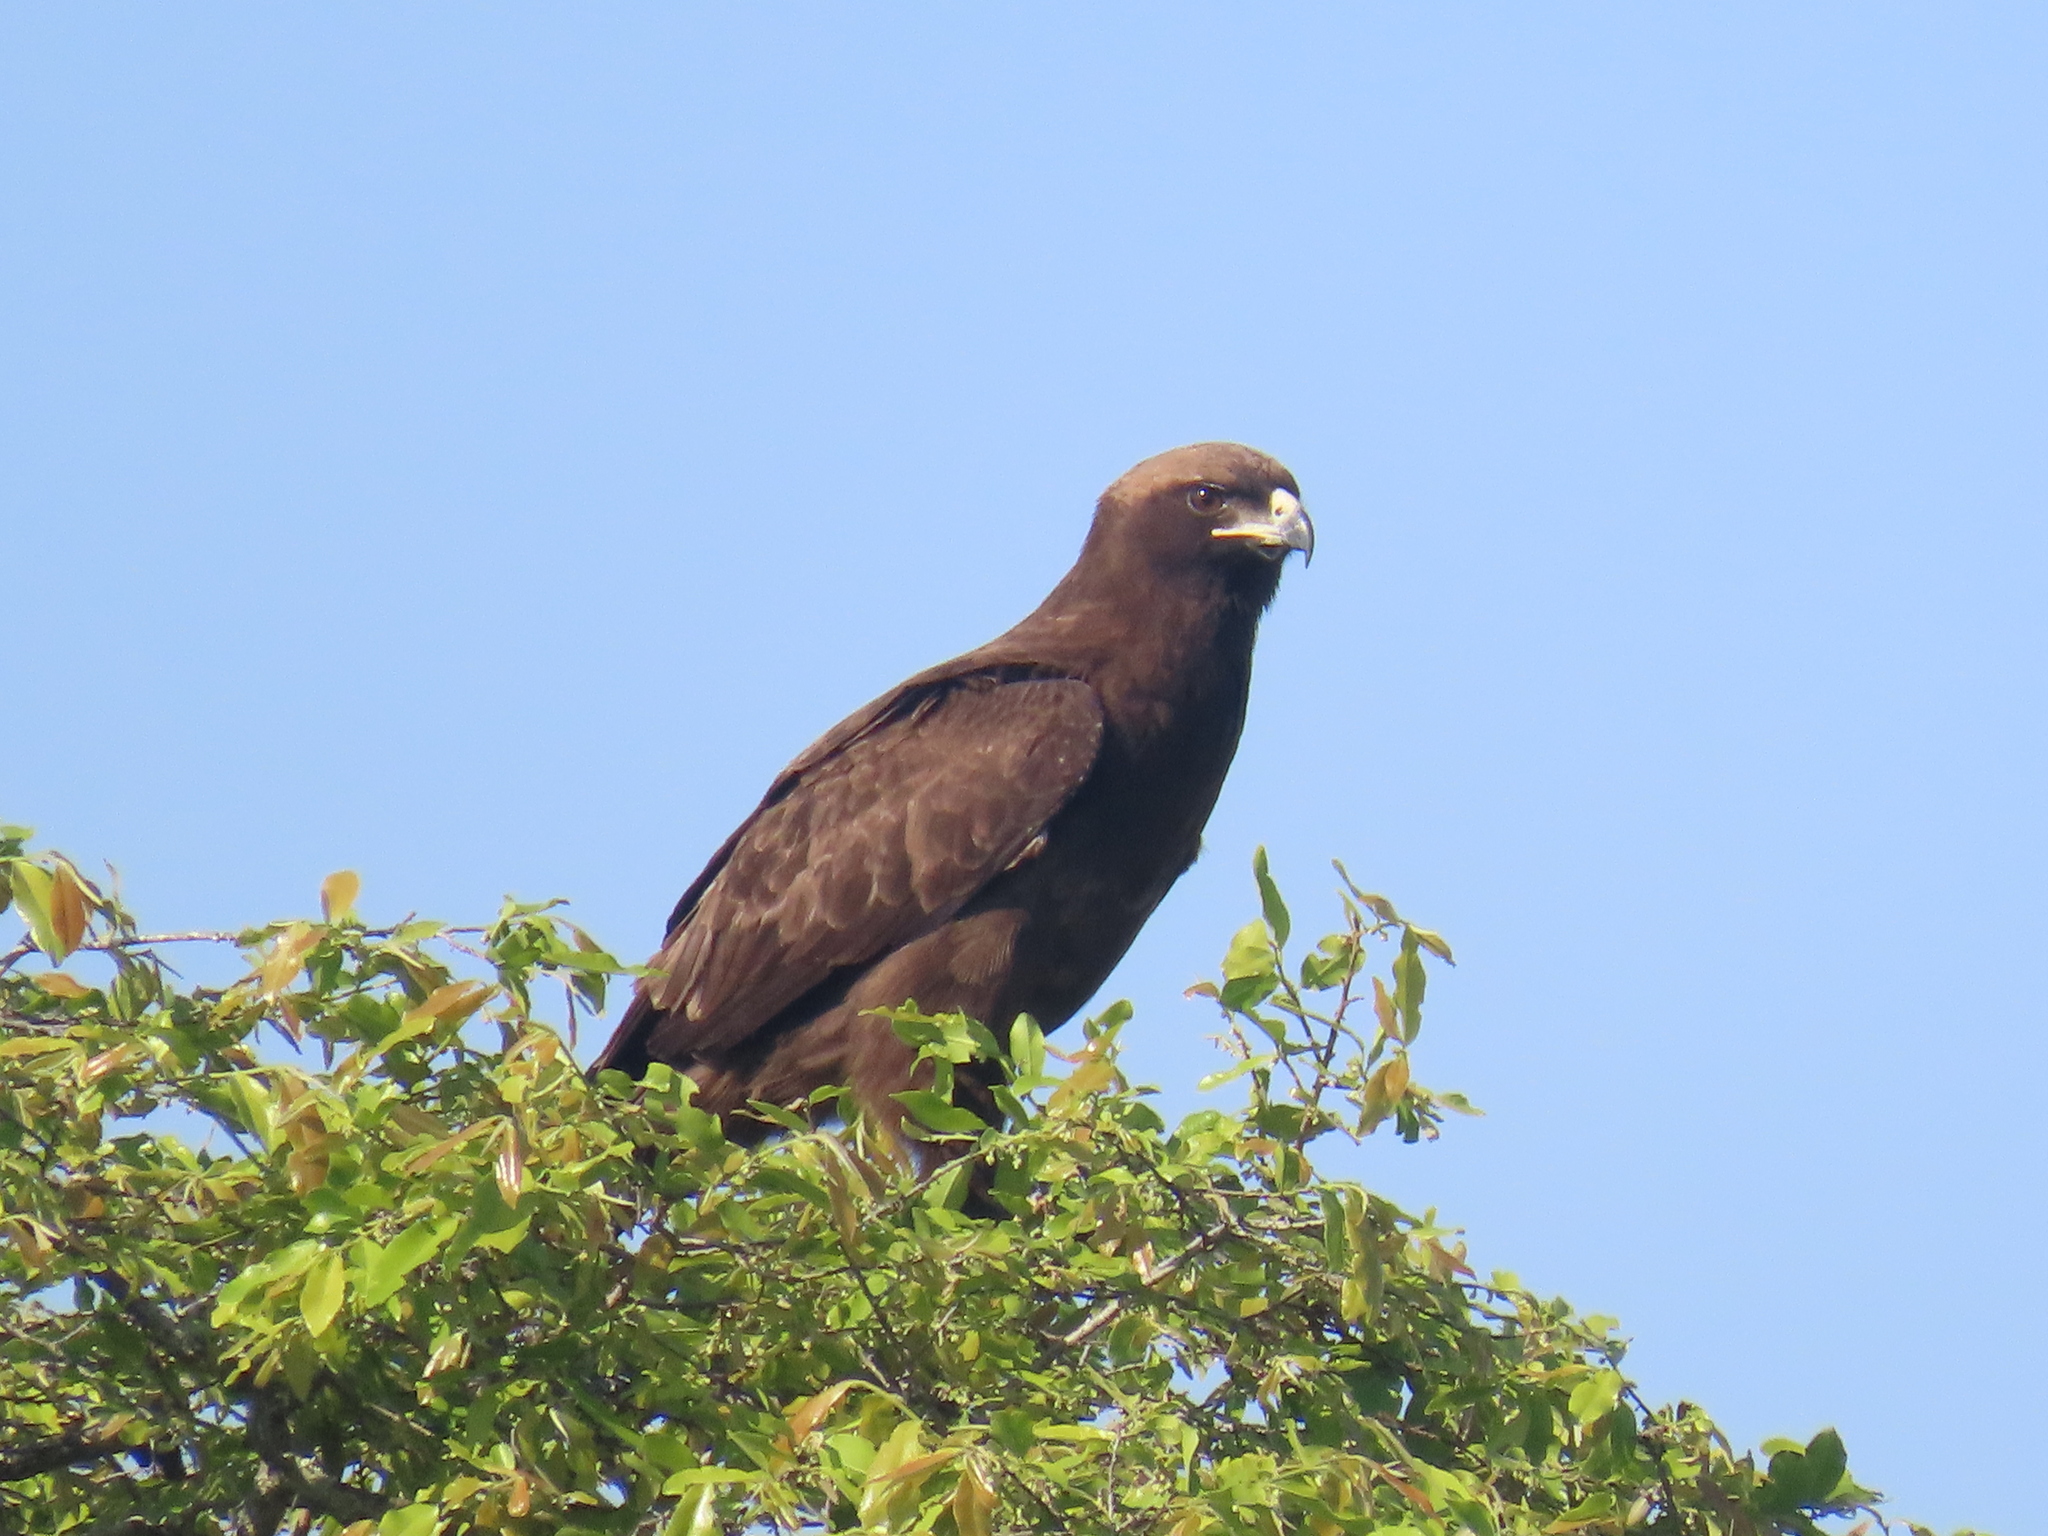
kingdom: Animalia
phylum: Chordata
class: Aves
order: Accipitriformes
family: Accipitridae
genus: Hieraaetus
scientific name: Hieraaetus wahlbergi
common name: Wahlberg's eagle
